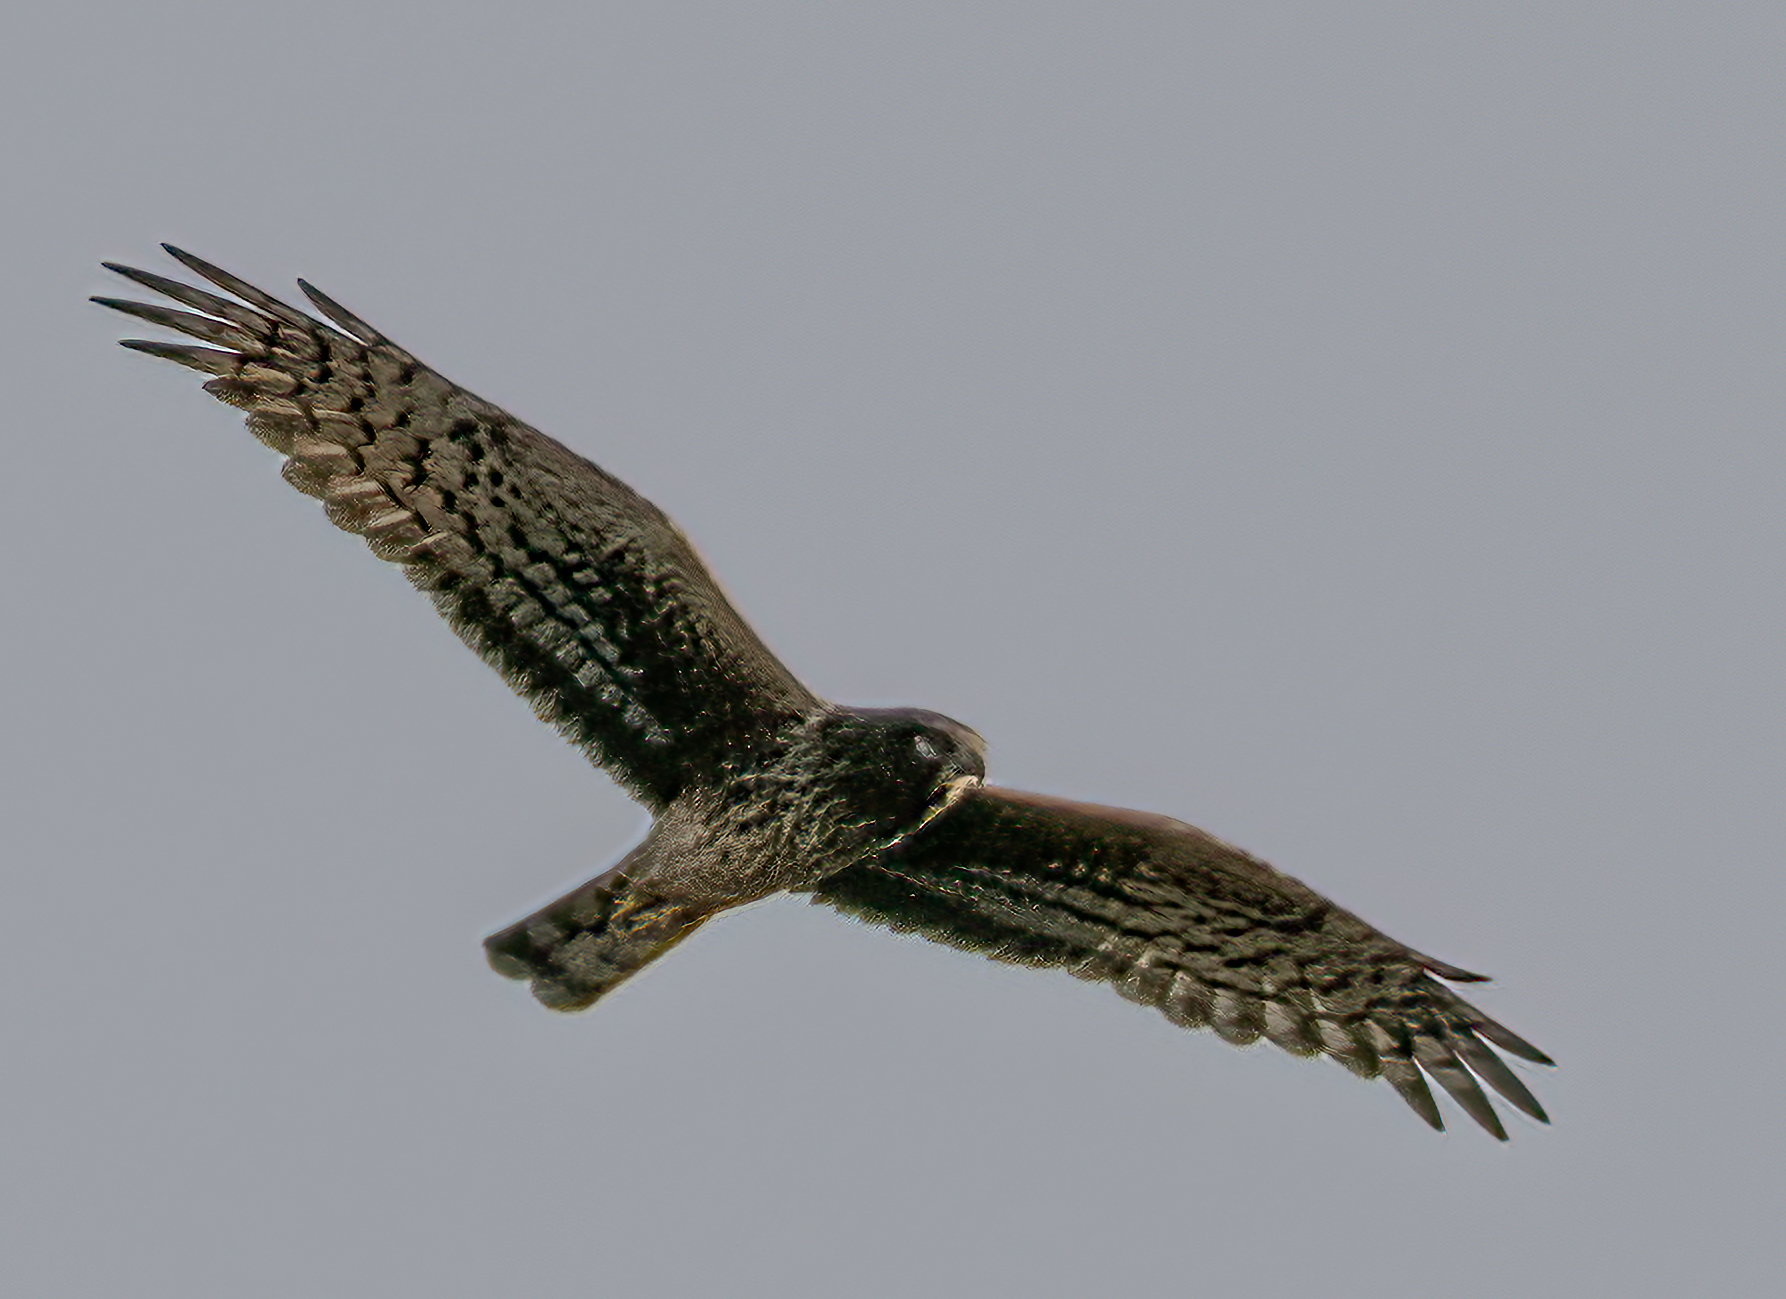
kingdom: Animalia
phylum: Chordata
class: Aves
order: Accipitriformes
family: Accipitridae
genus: Circus
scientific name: Circus cyaneus
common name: Hen harrier
